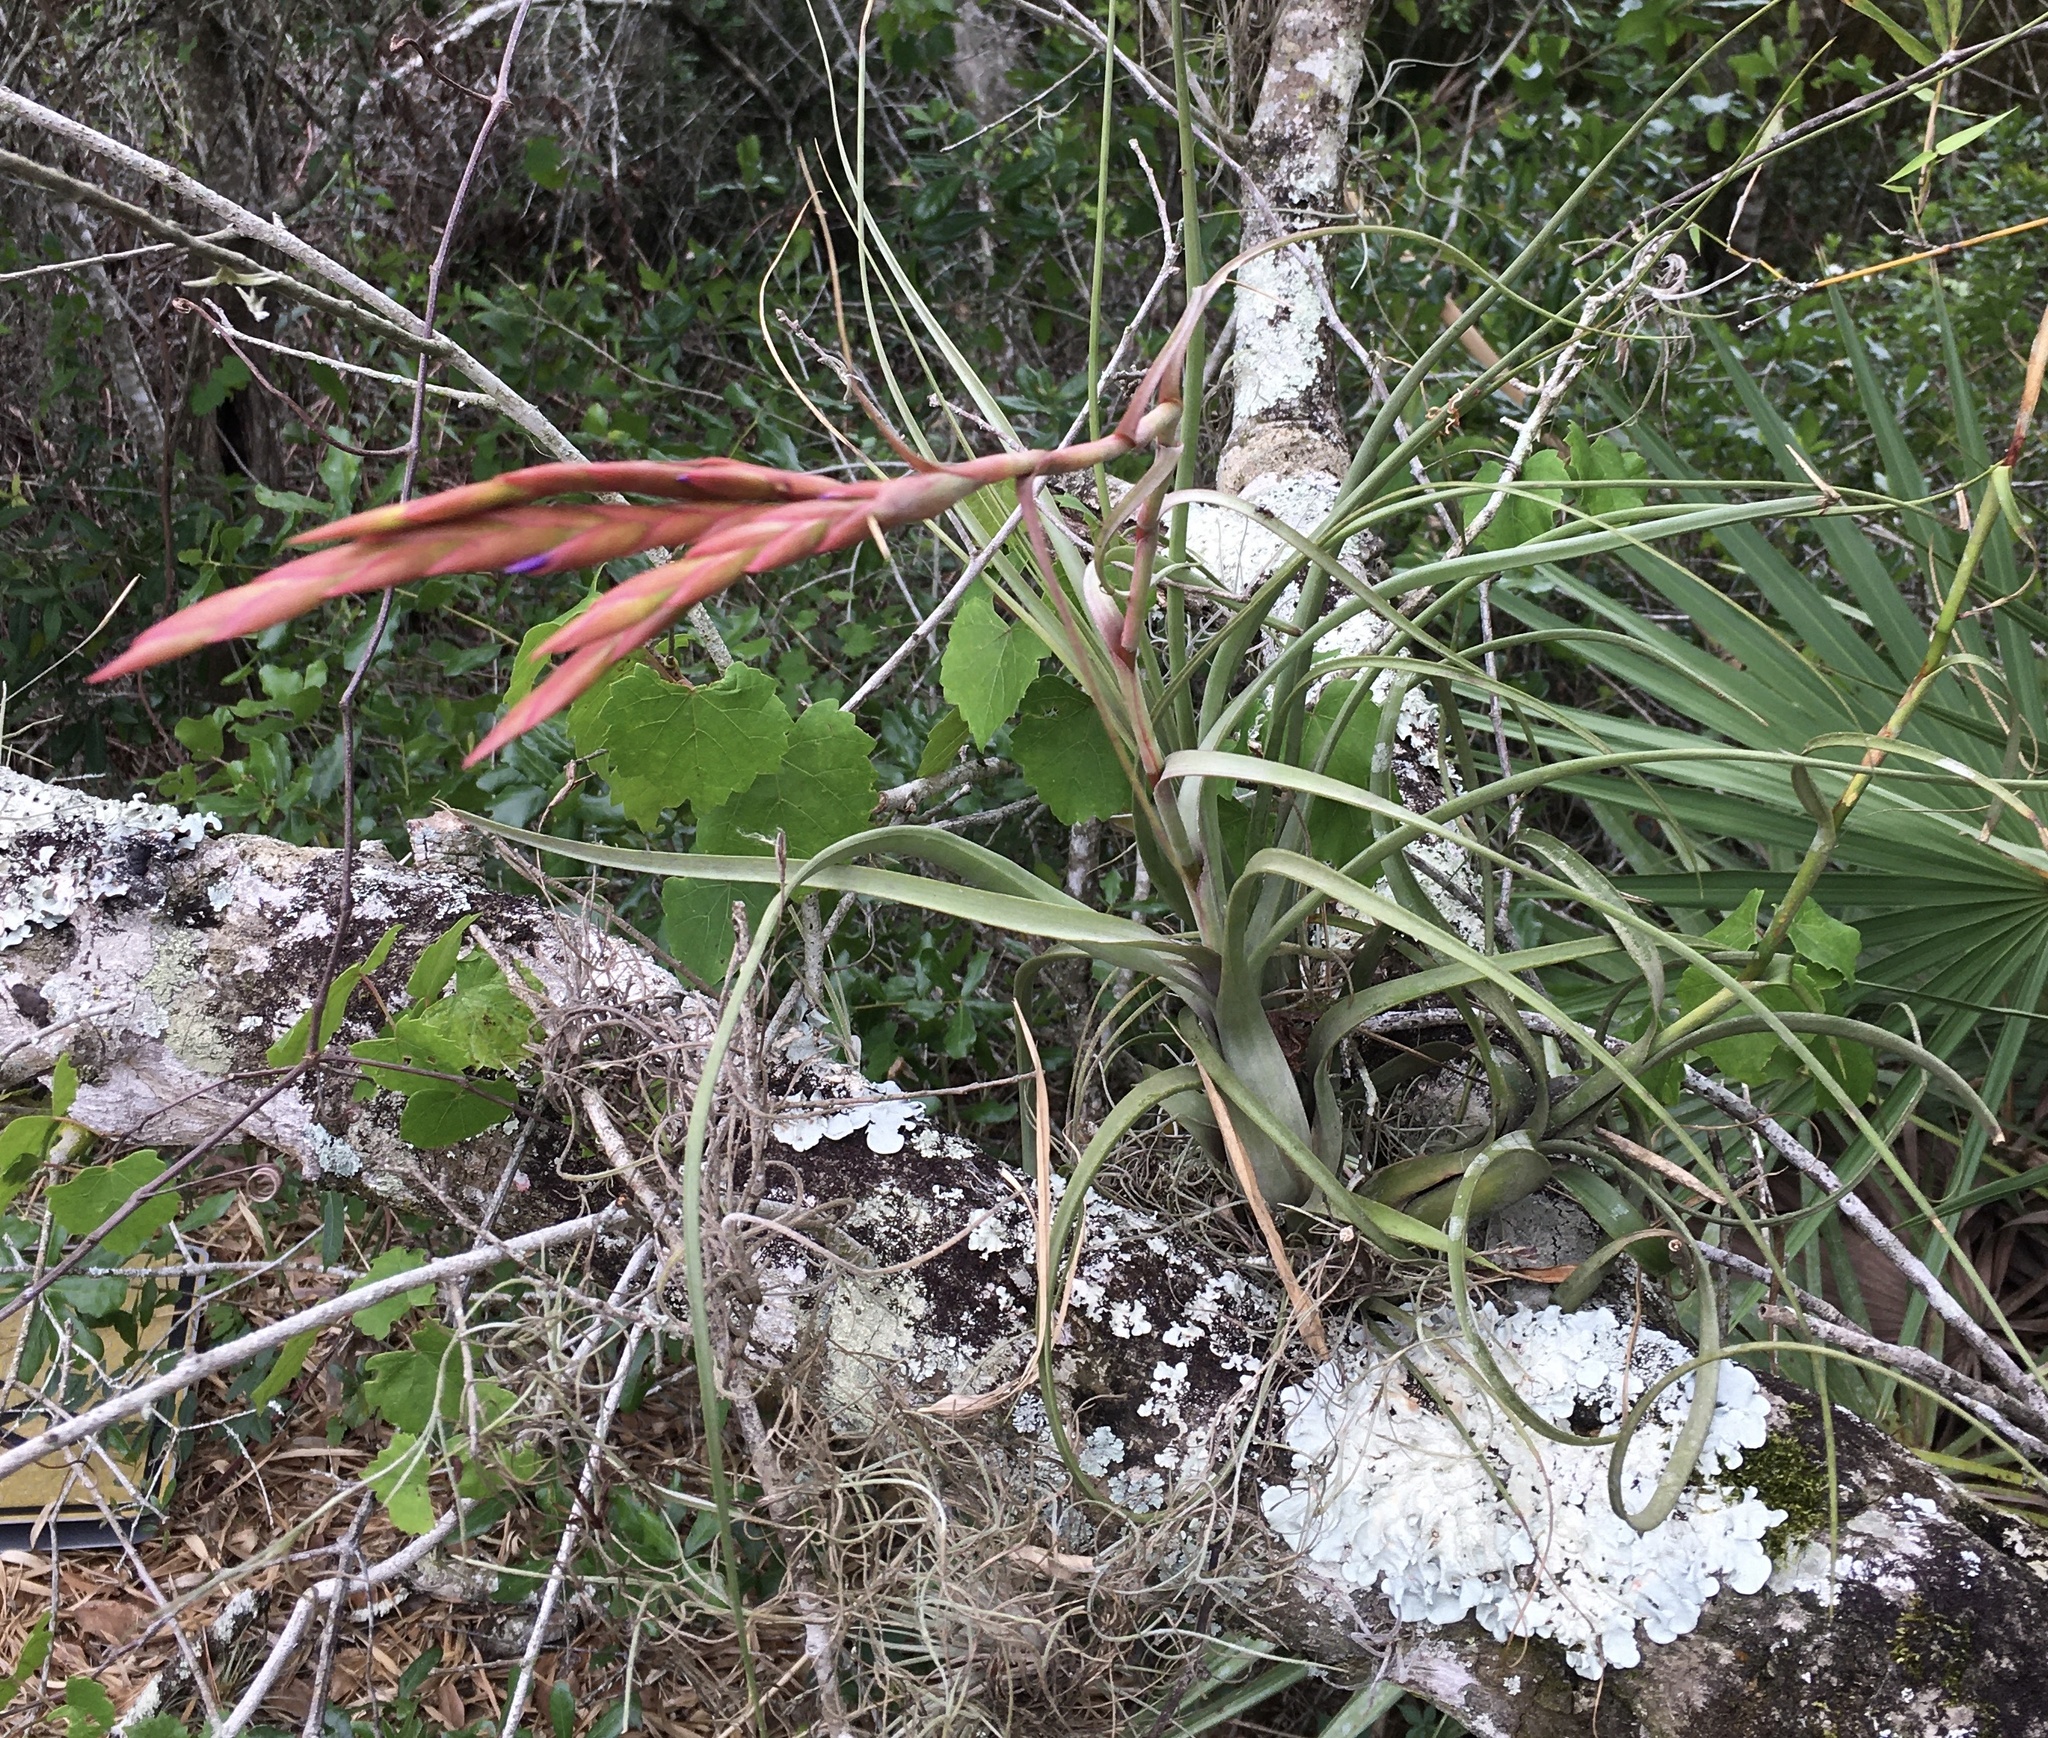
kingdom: Plantae
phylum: Tracheophyta
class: Liliopsida
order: Poales
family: Bromeliaceae
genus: Tillandsia
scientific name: Tillandsia balbisiana
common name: Northern needleleaf
